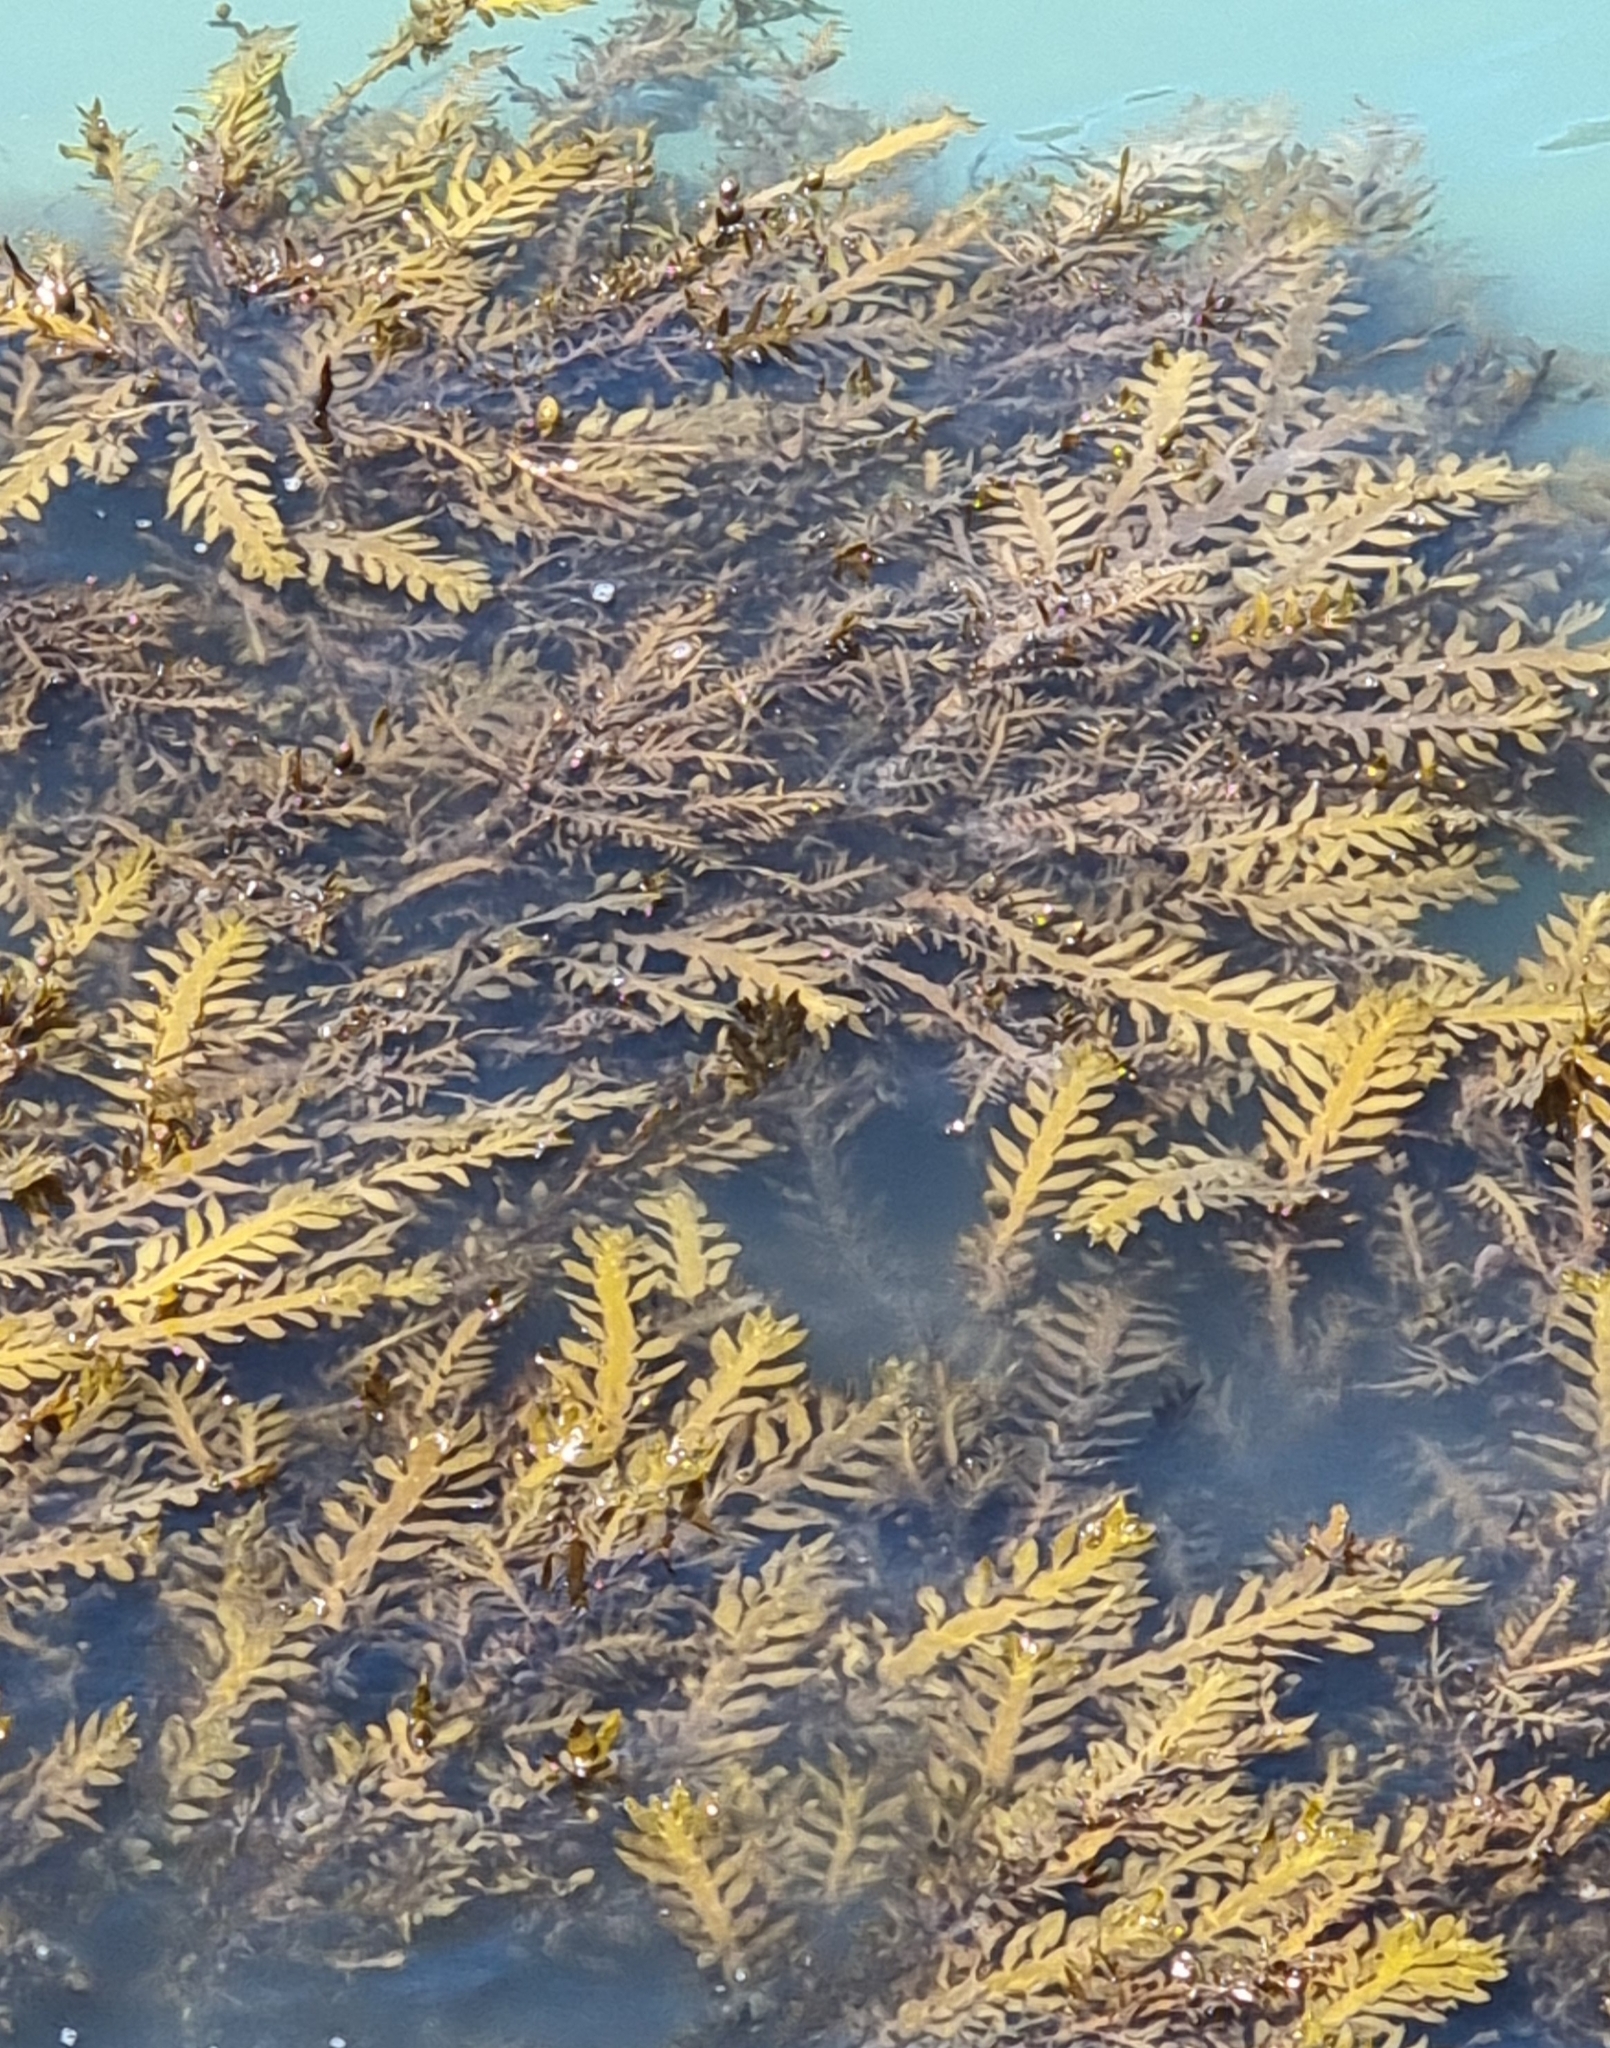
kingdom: Chromista
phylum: Ochrophyta
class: Phaeophyceae
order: Fucales
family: Sargassaceae
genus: Carpophyllum
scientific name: Carpophyllum maschalocarpum
